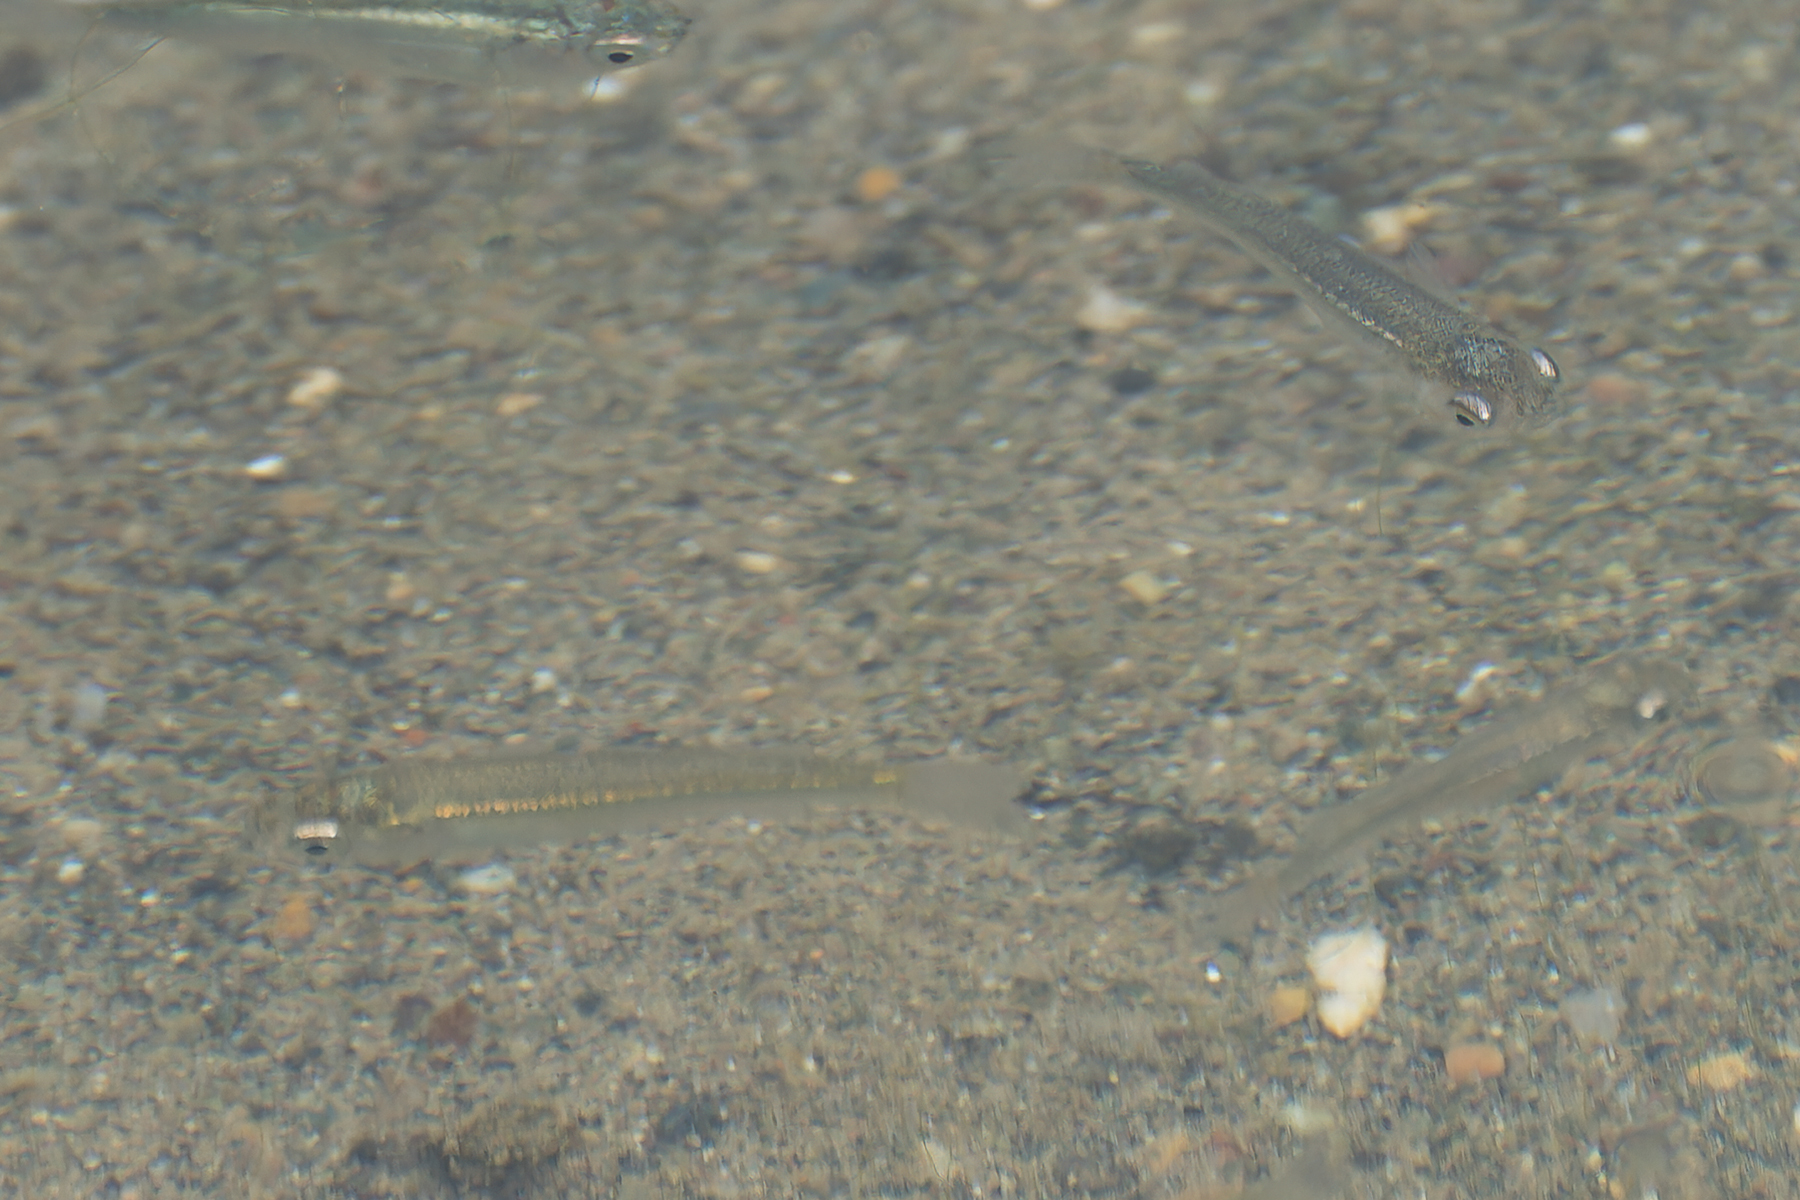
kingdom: Animalia
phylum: Chordata
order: Cyprinodontiformes
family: Poeciliidae
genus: Gambusia
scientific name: Gambusia affinis
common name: Mosquitofish
